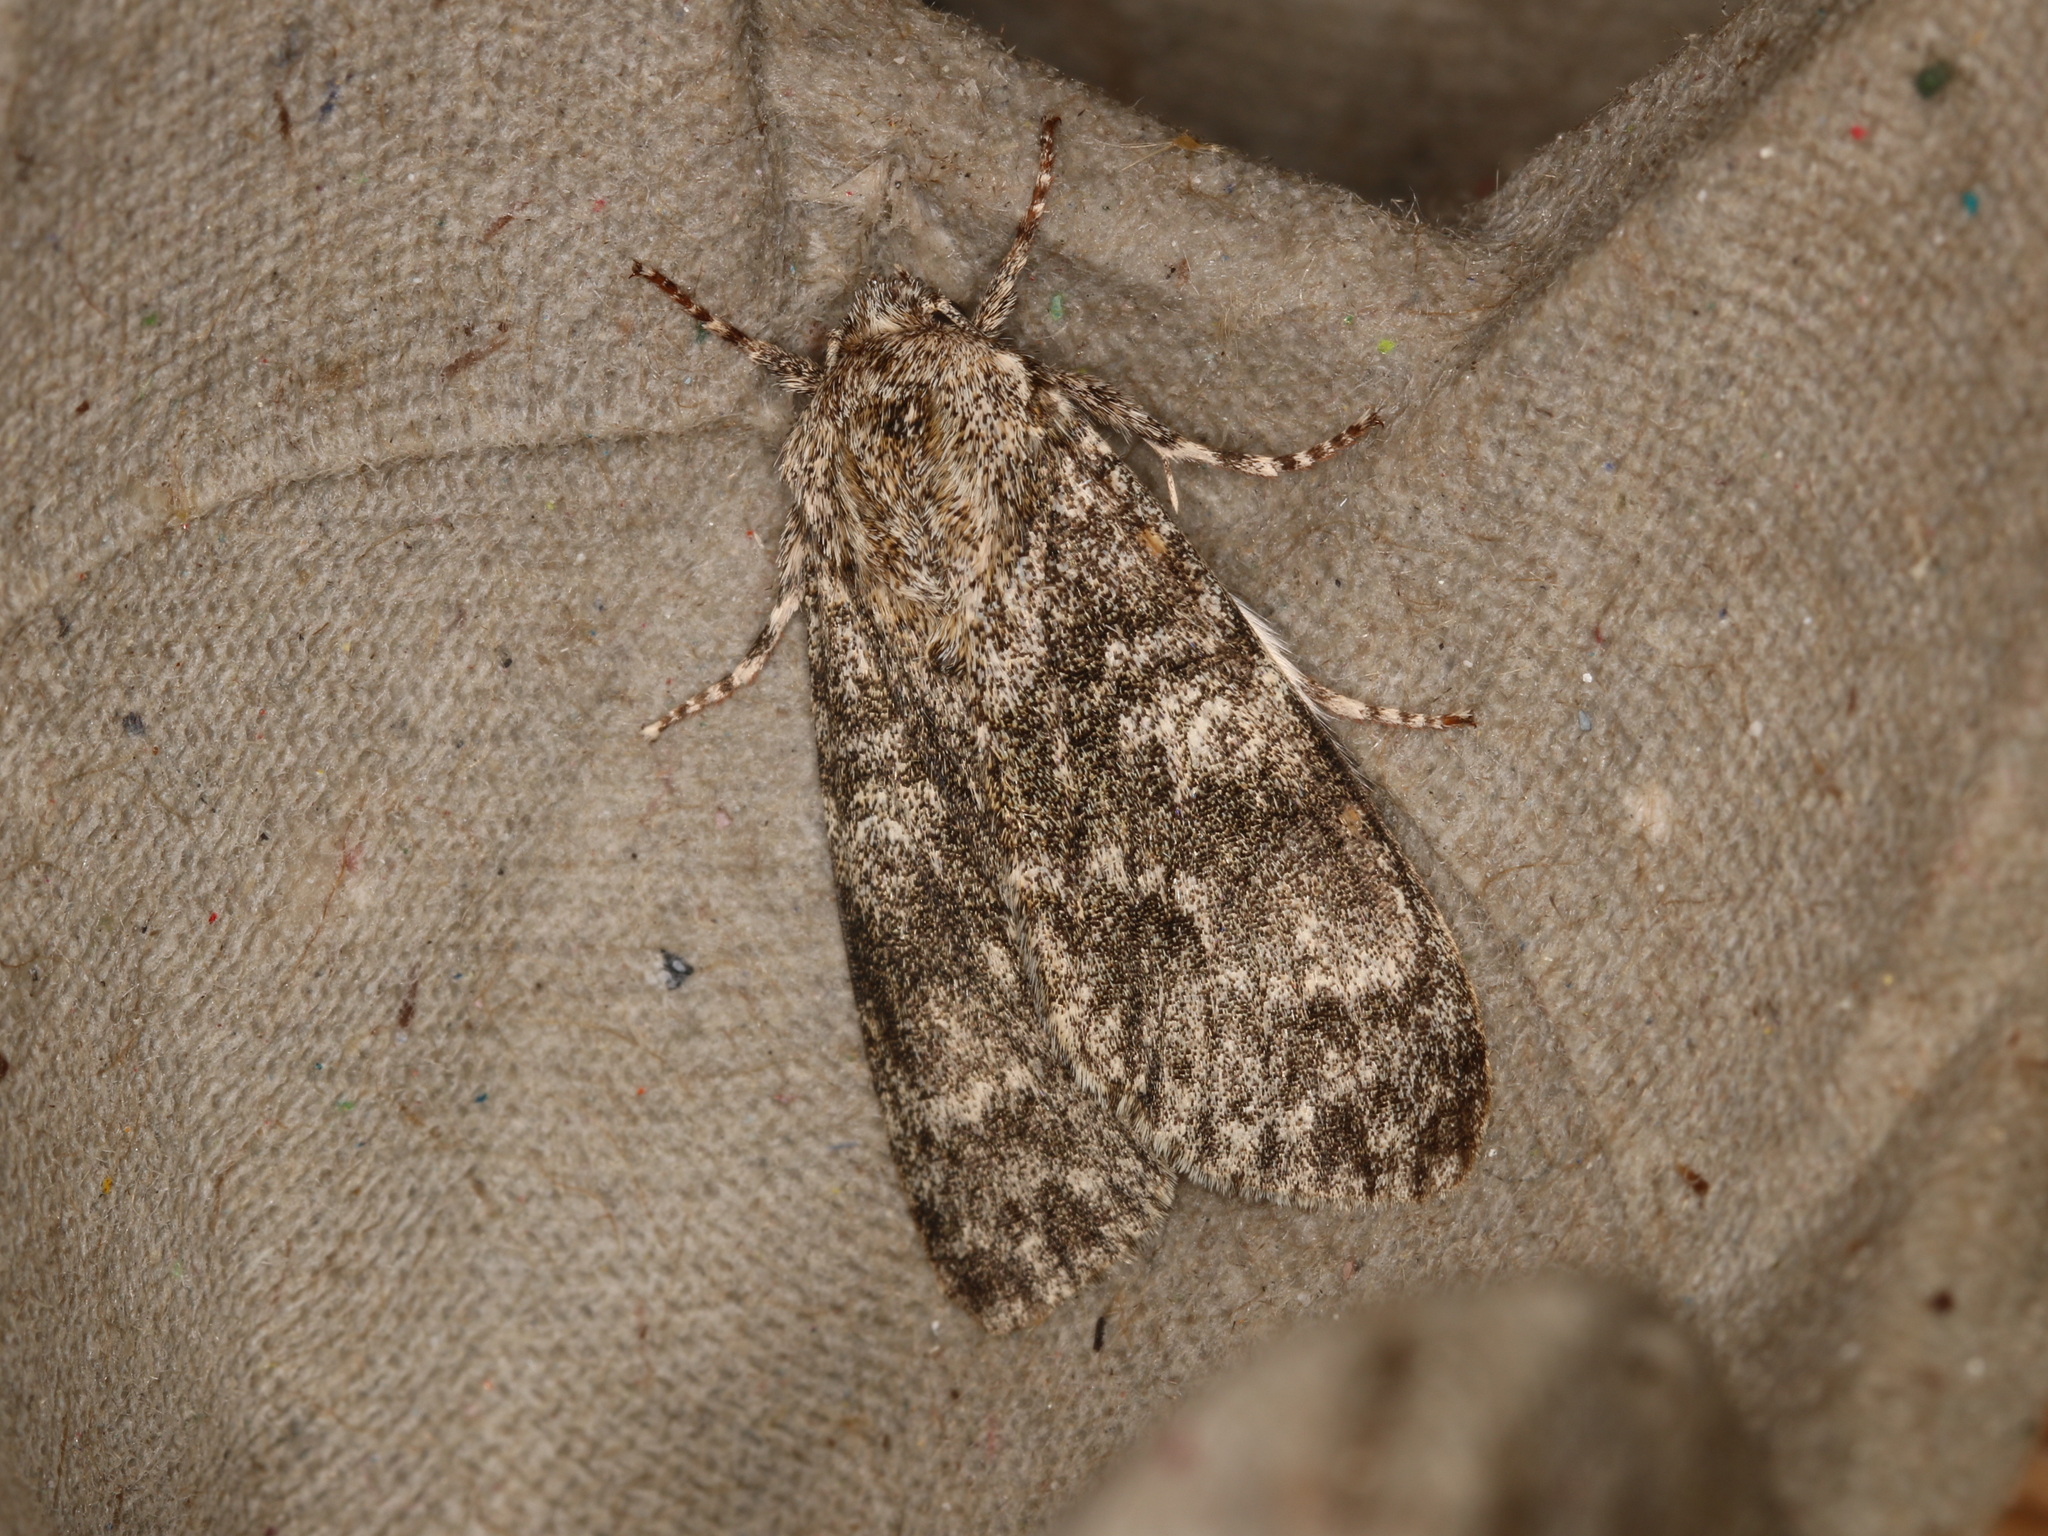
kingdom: Animalia
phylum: Arthropoda
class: Insecta
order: Lepidoptera
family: Noctuidae
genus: Acronicta
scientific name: Acronicta megacephala
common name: Poplar grey
